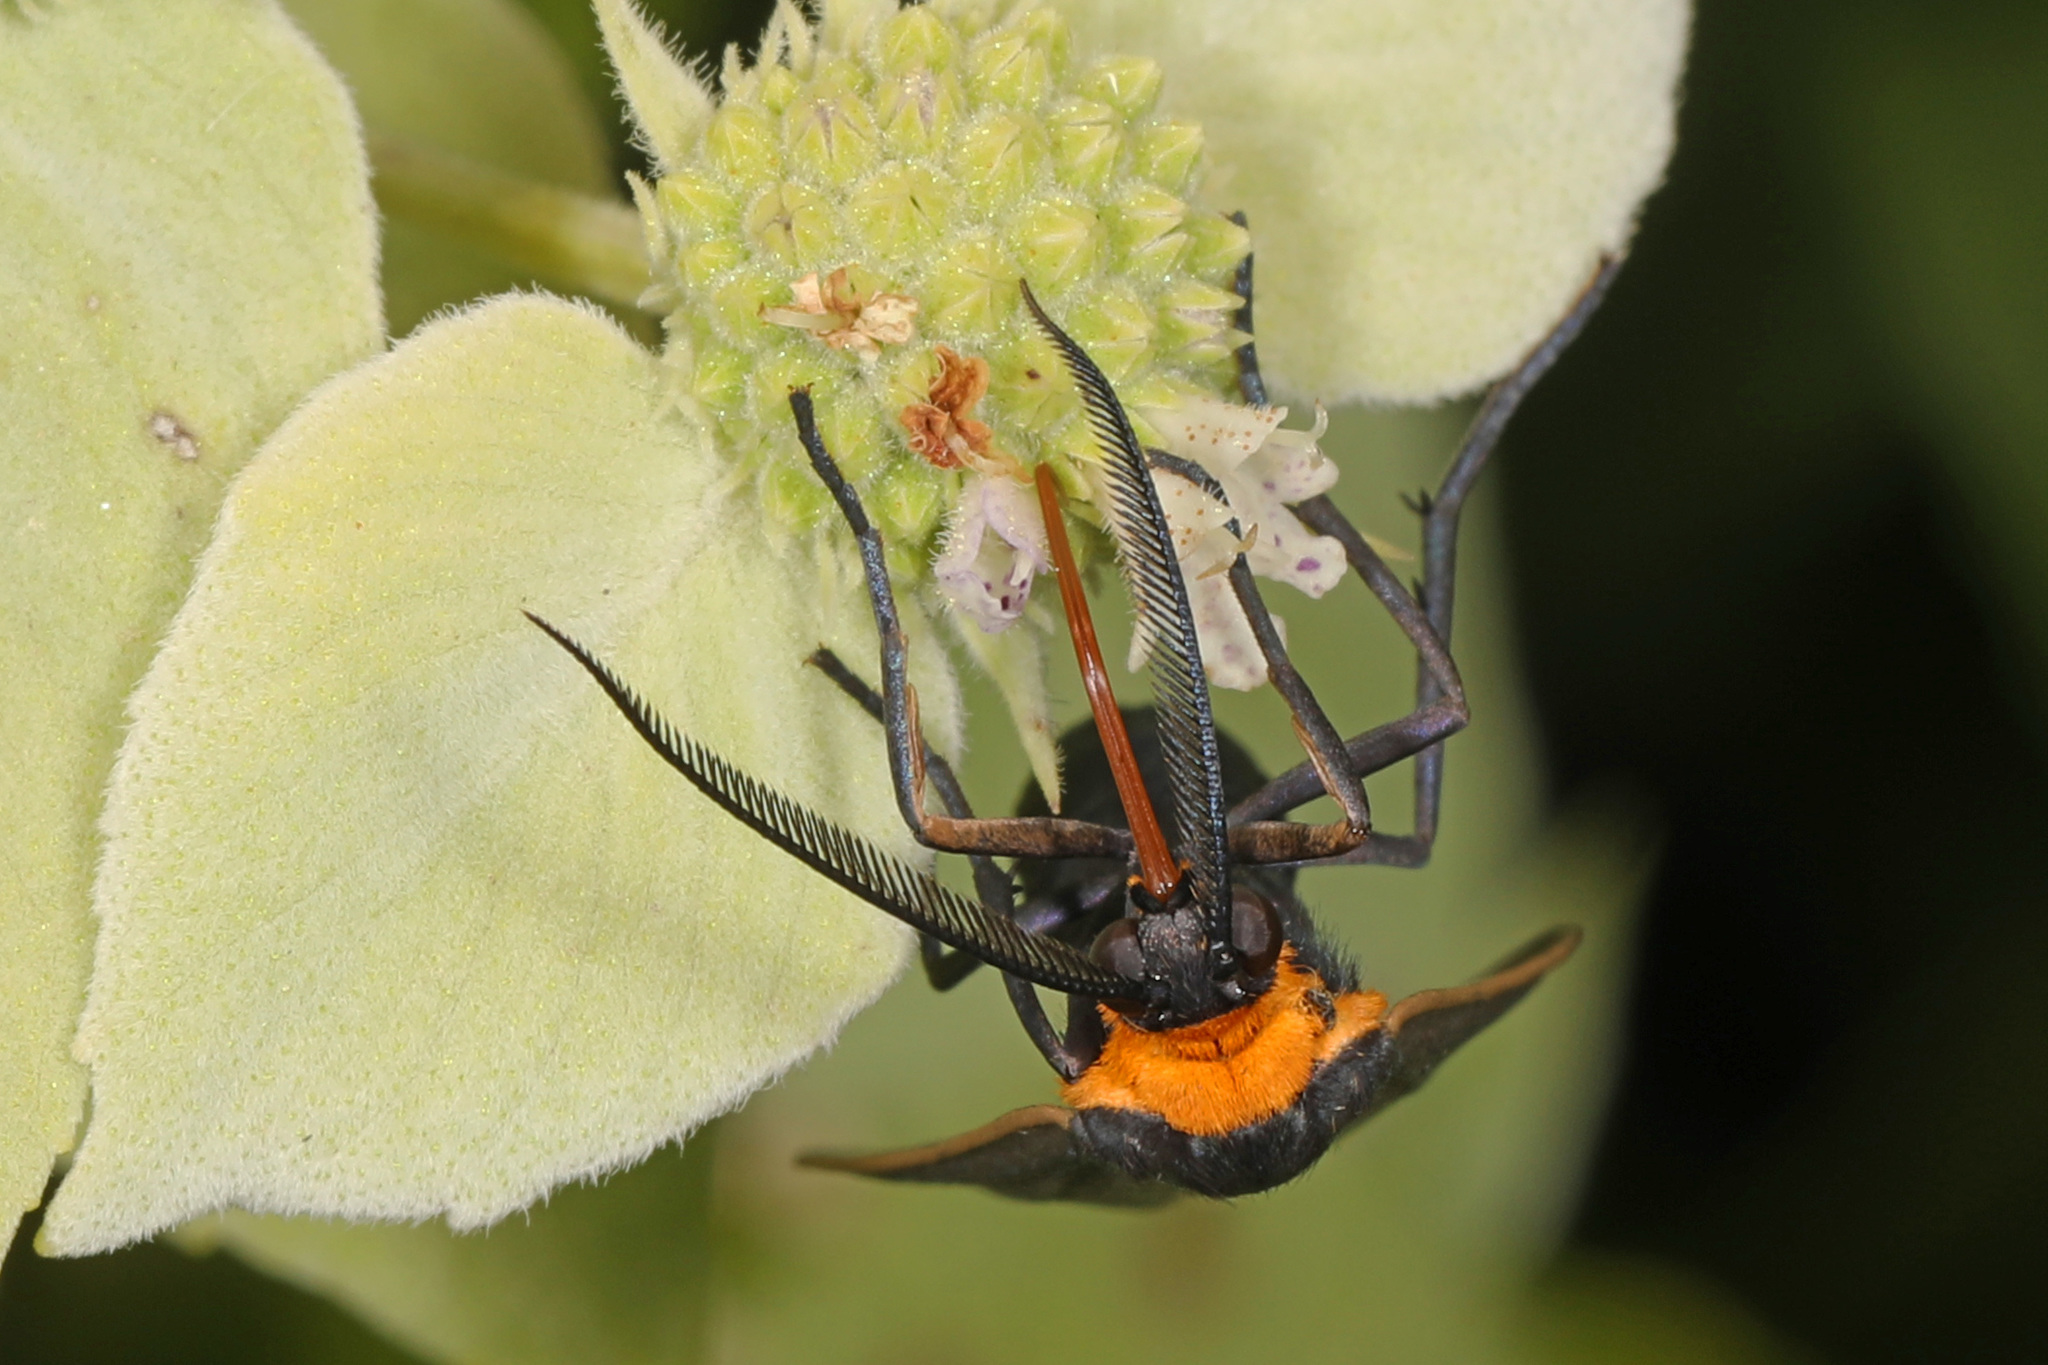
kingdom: Animalia
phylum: Arthropoda
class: Insecta
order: Lepidoptera
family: Erebidae
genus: Cisseps
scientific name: Cisseps fulvicollis
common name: Yellow-collared scape moth
